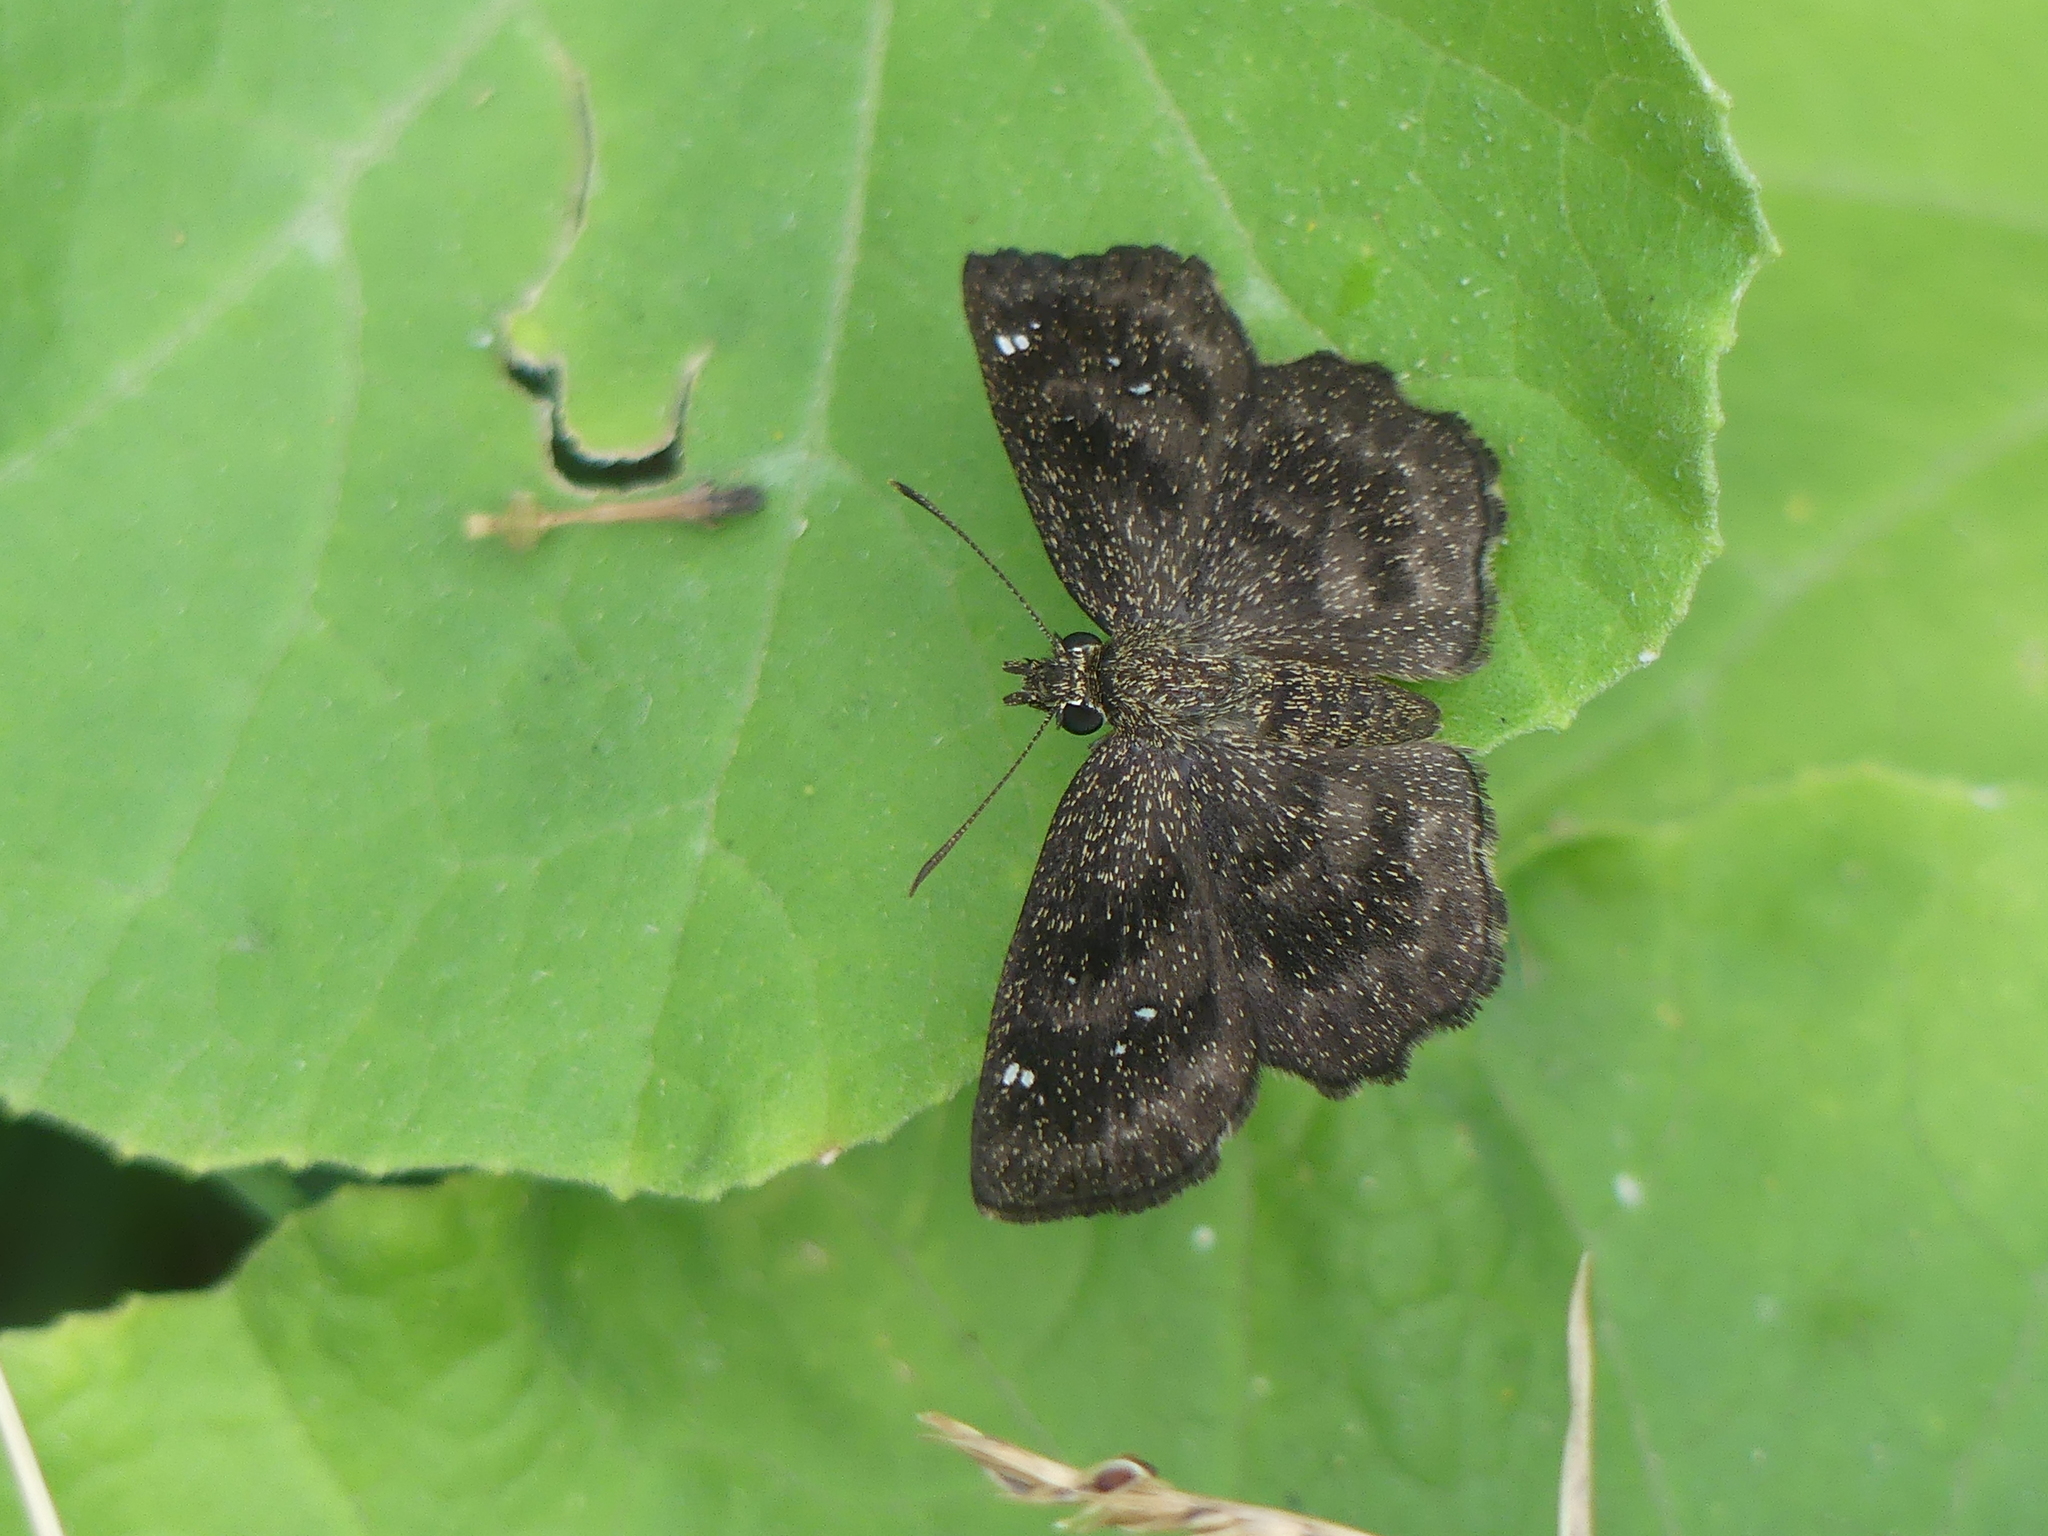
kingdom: Animalia
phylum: Arthropoda
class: Insecta
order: Lepidoptera
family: Hesperiidae
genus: Staphylus
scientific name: Staphylus mazans
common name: Mazans scallopwing
